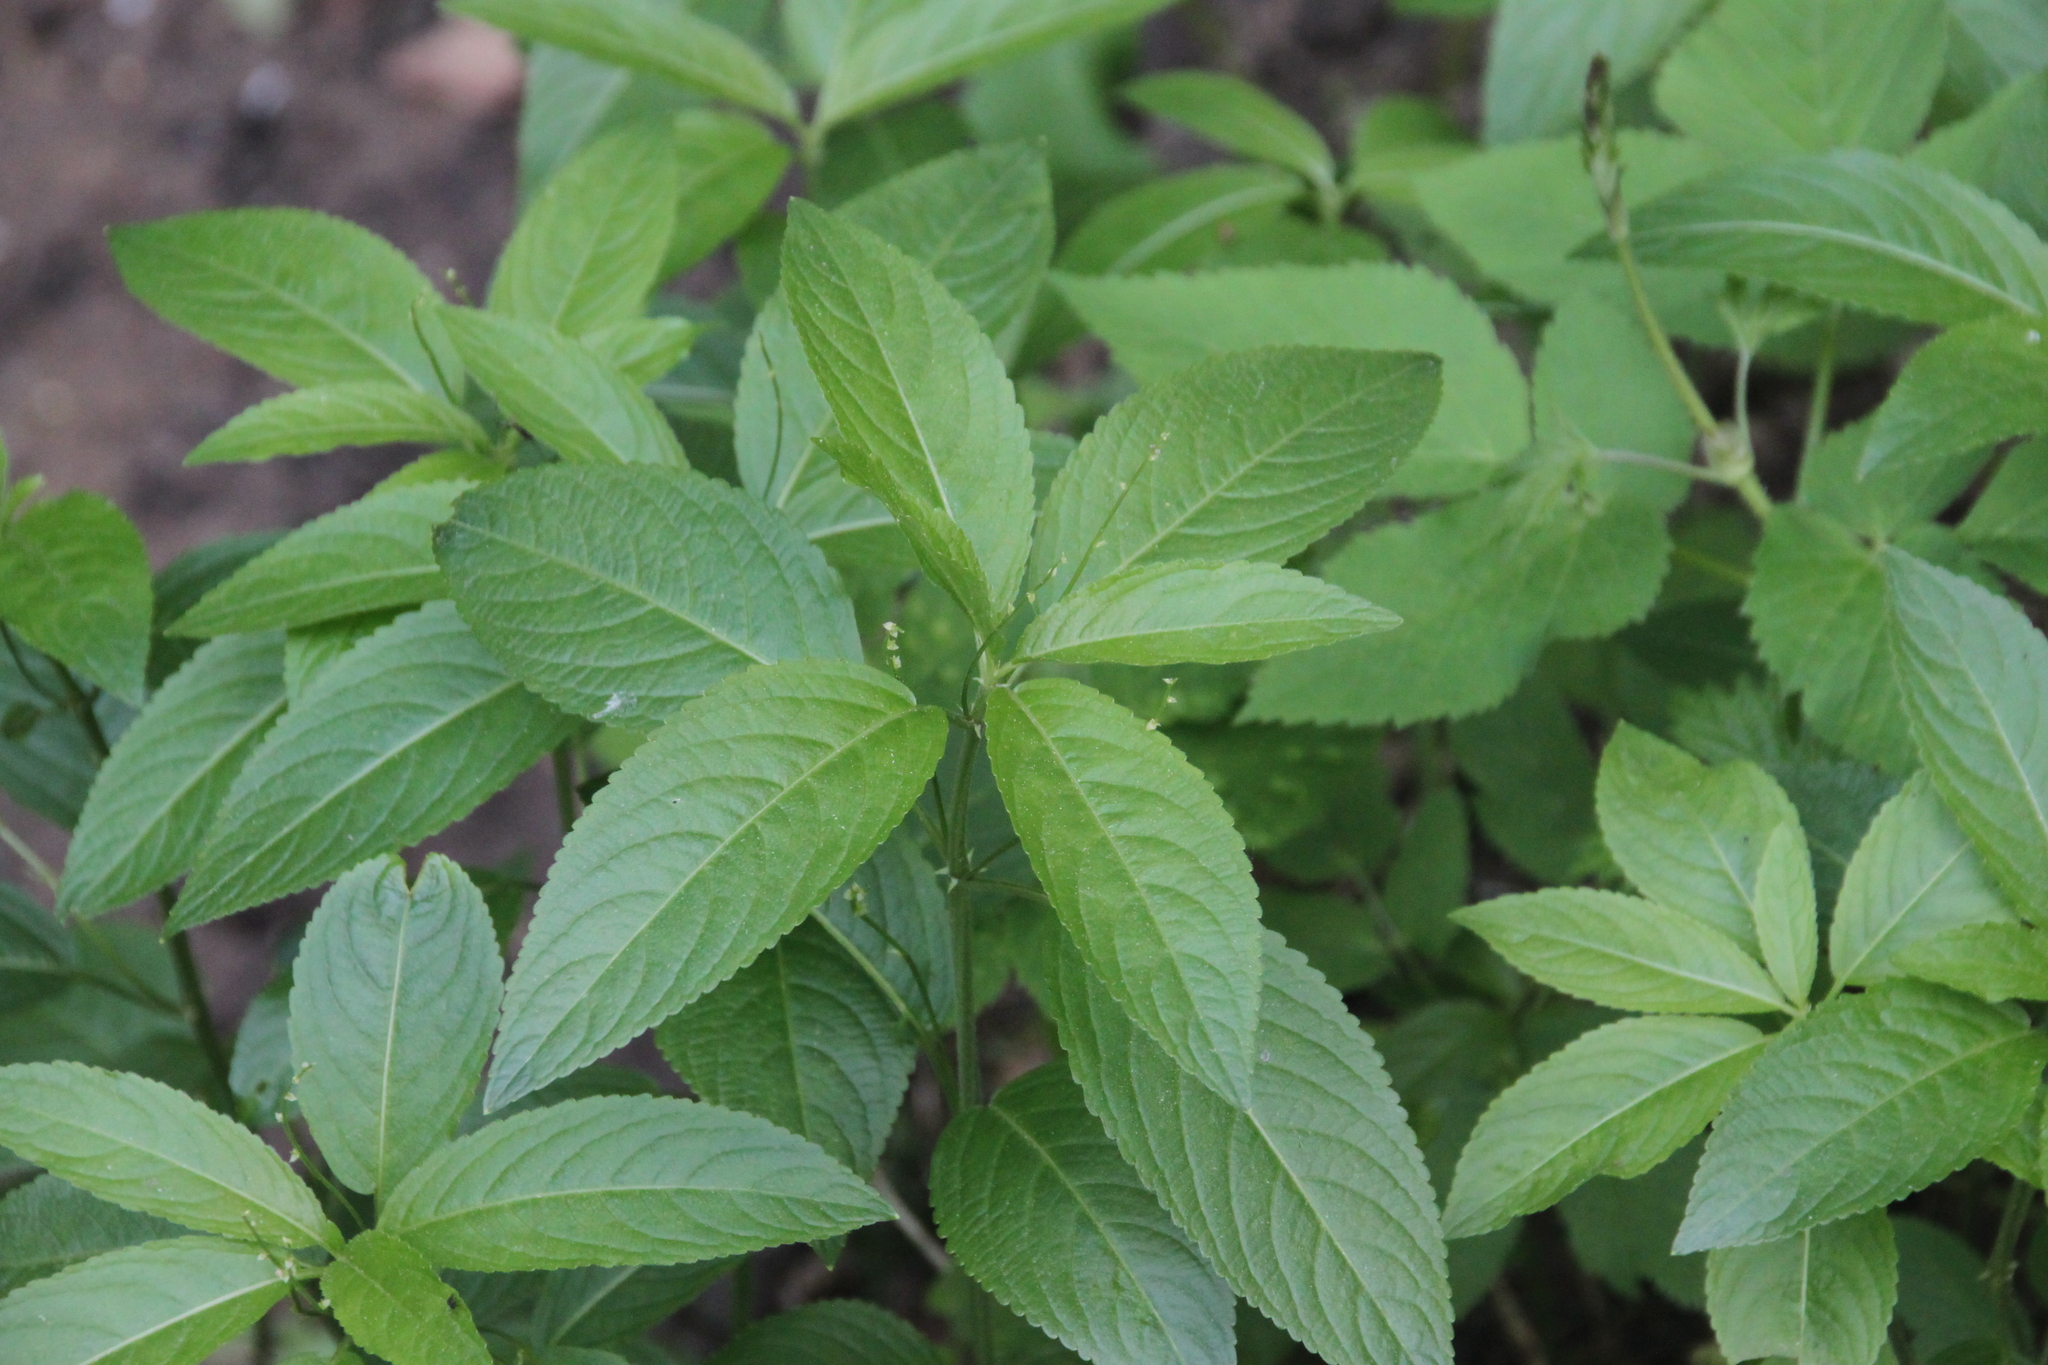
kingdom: Plantae
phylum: Tracheophyta
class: Magnoliopsida
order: Malpighiales
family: Euphorbiaceae
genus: Mercurialis
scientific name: Mercurialis perennis
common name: Dog mercury
